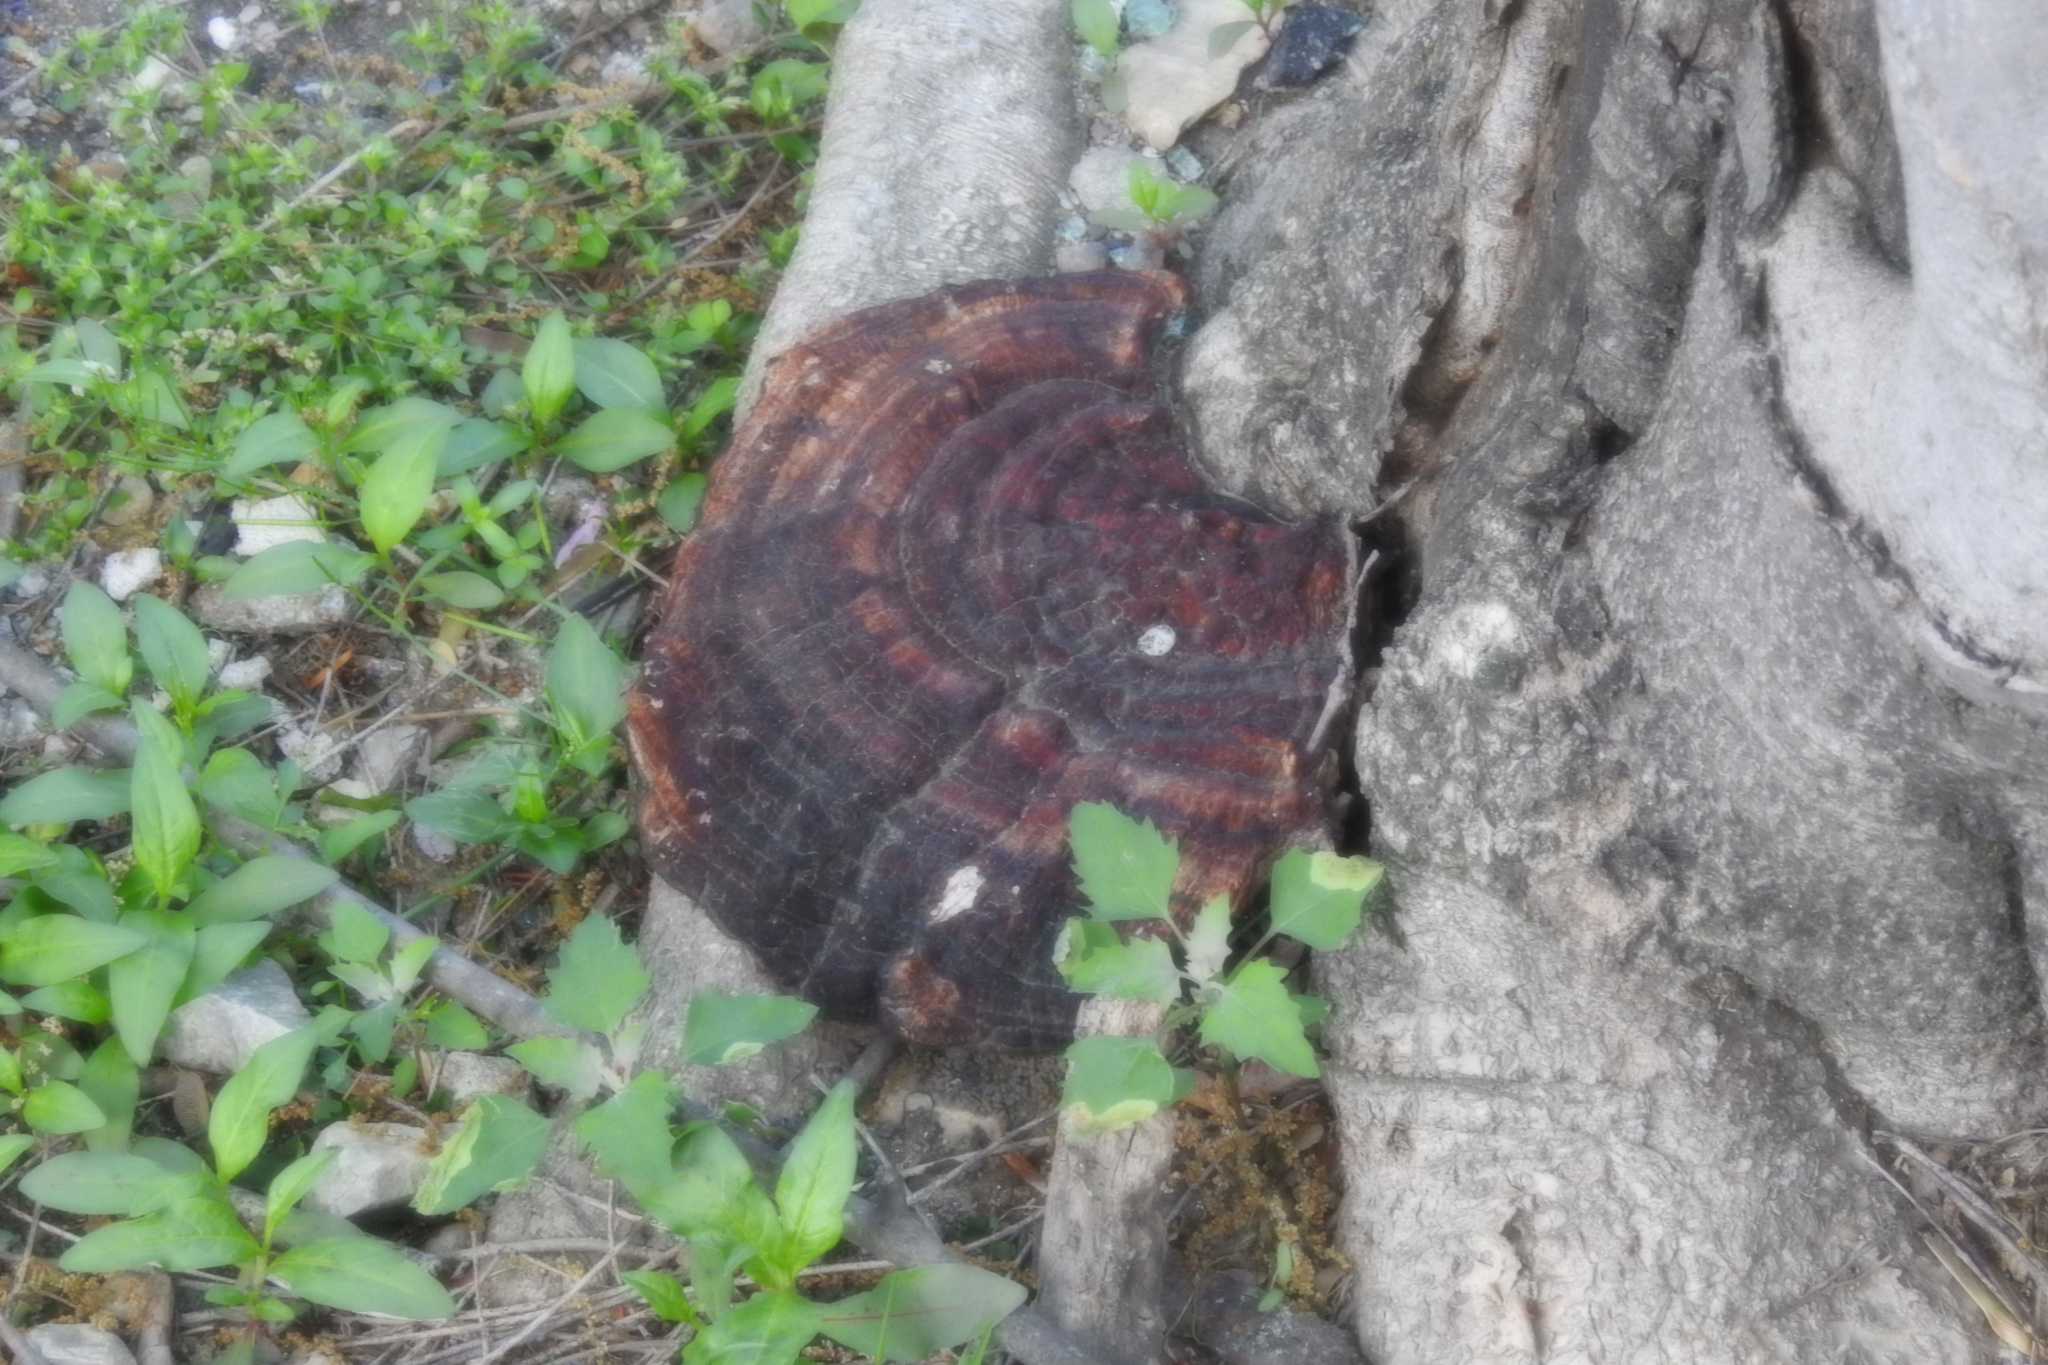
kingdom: Fungi
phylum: Basidiomycota
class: Agaricomycetes
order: Polyporales
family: Polyporaceae
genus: Ganoderma
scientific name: Ganoderma resinaceum
